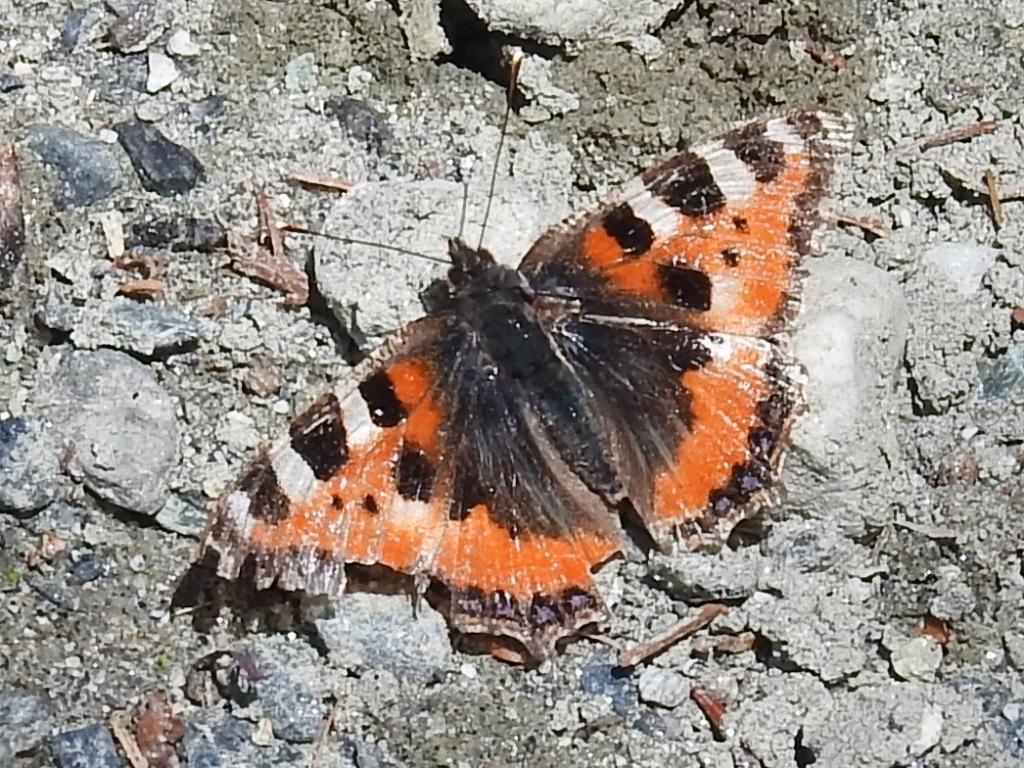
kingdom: Animalia
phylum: Arthropoda
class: Insecta
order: Lepidoptera
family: Nymphalidae
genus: Aglais
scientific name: Aglais urticae
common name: Small tortoiseshell
